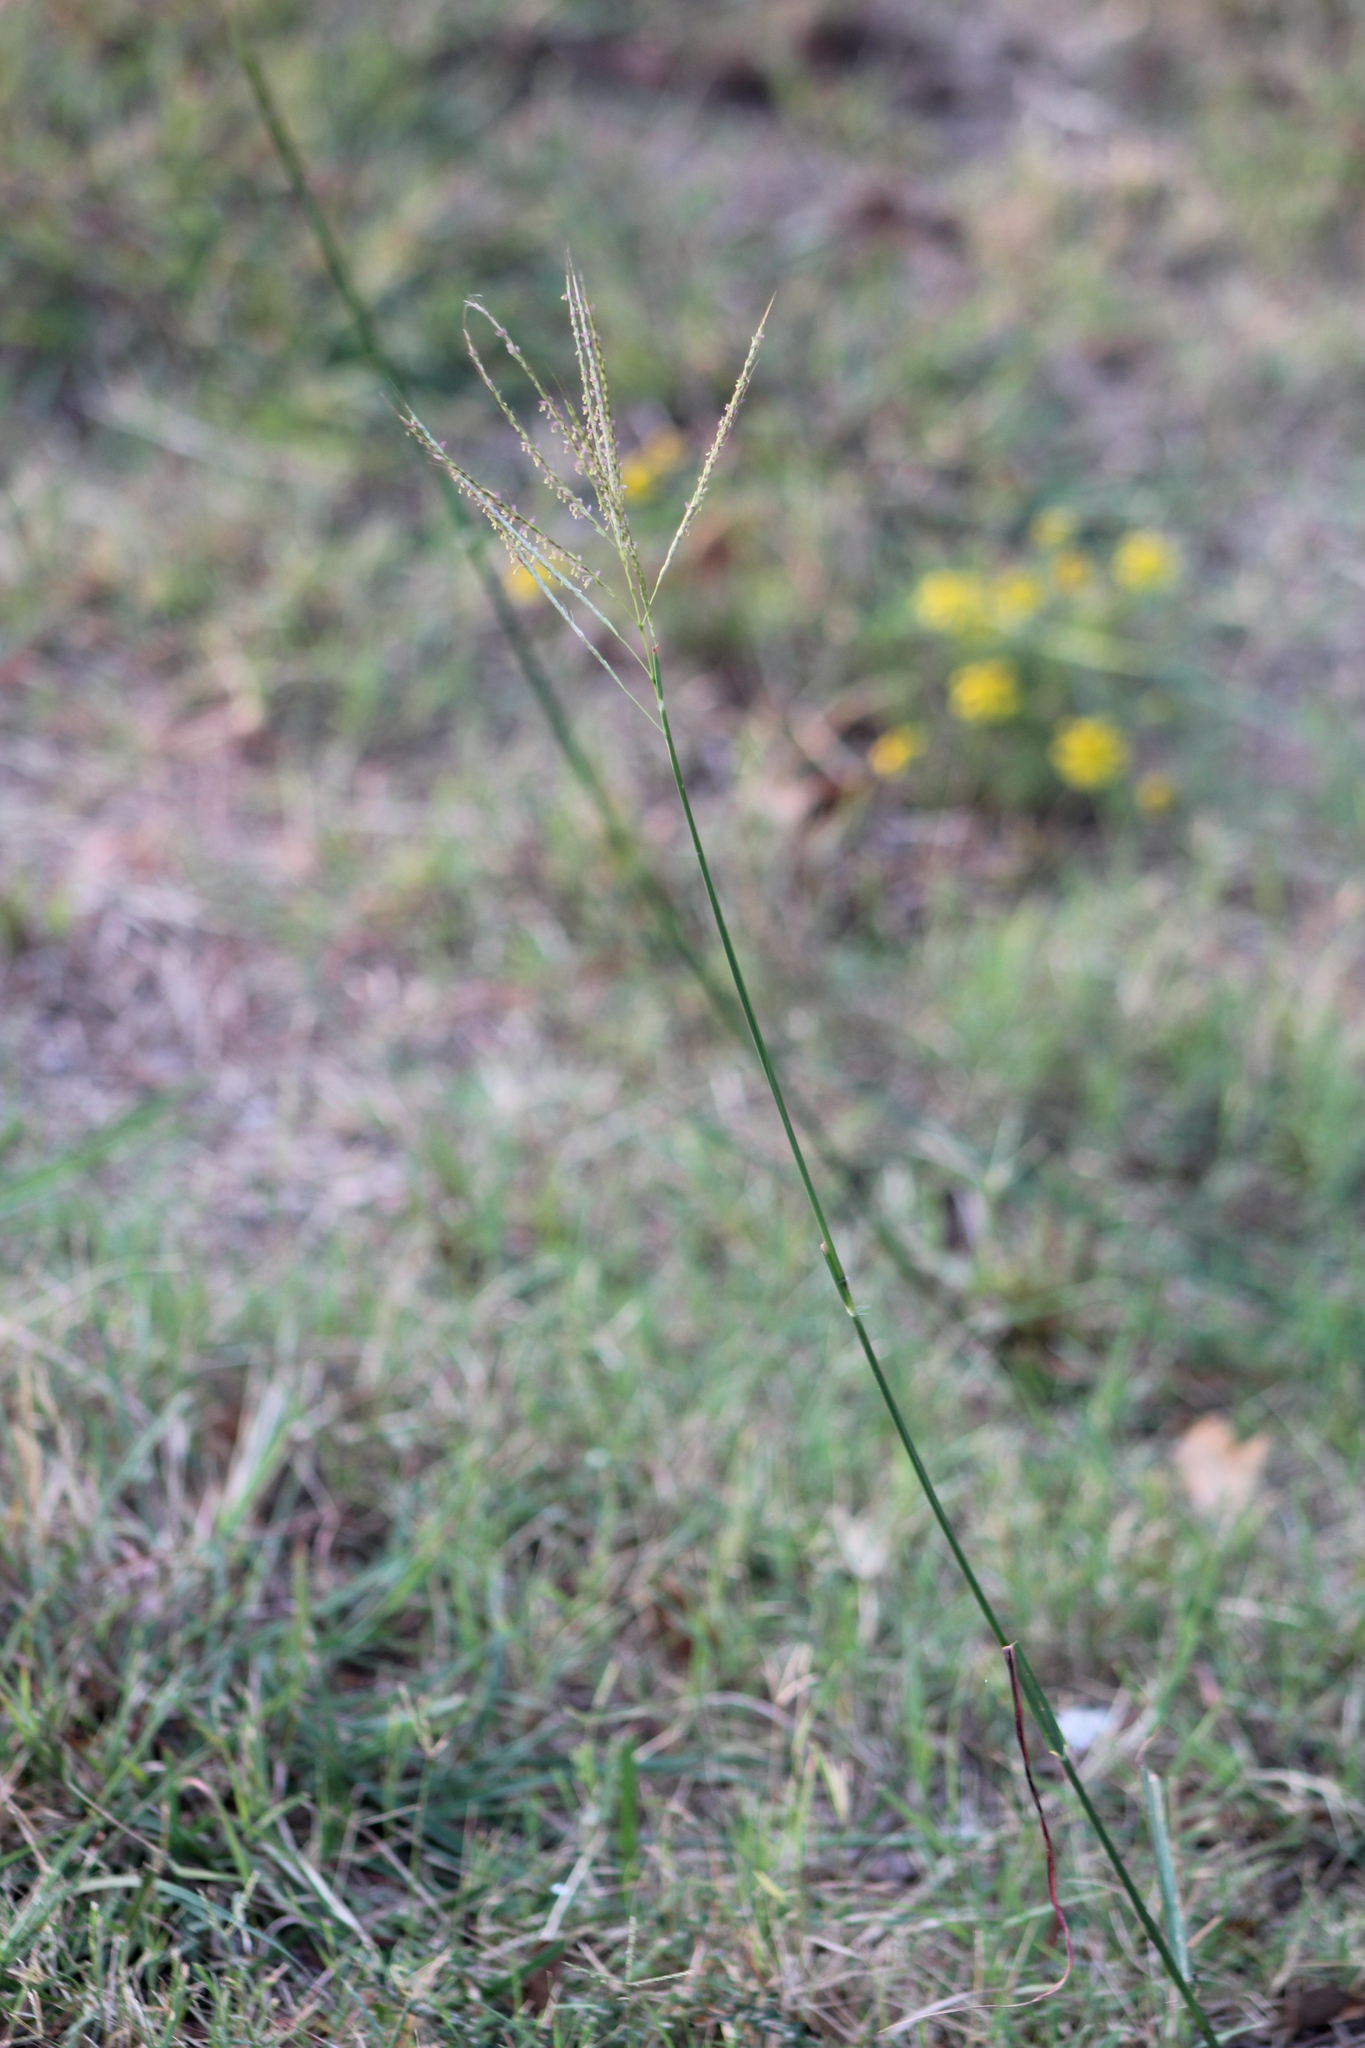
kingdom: Plantae
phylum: Tracheophyta
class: Liliopsida
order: Poales
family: Poaceae
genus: Bothriochloa
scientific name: Bothriochloa ischaemum
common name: Yellow bluestem
